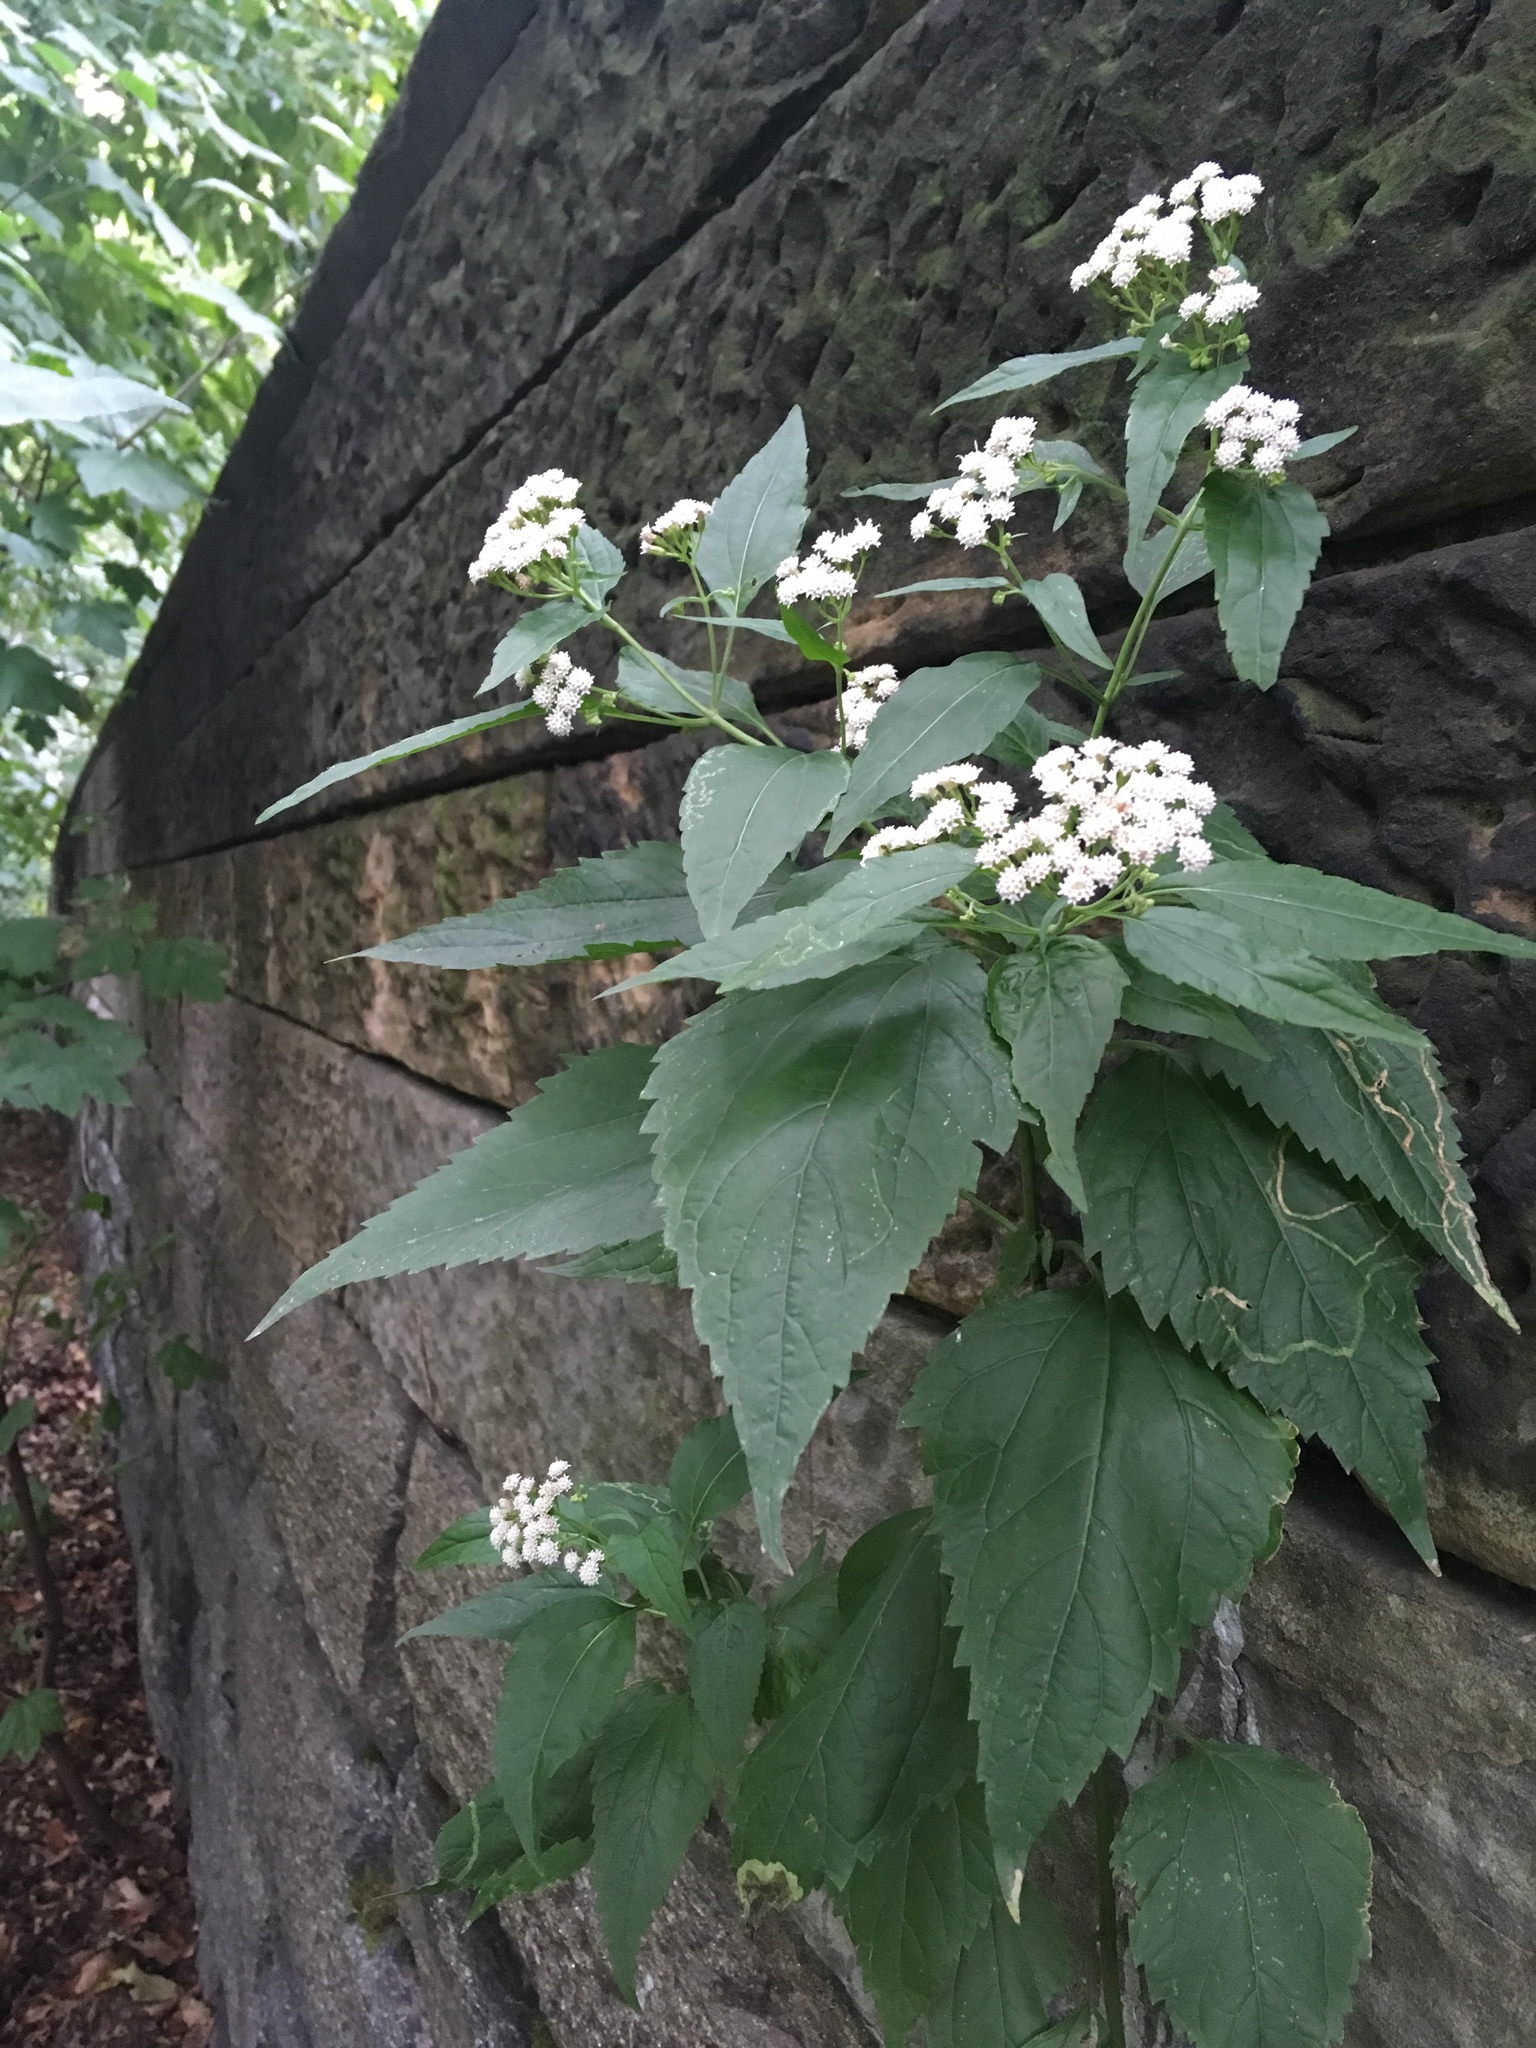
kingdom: Plantae
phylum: Tracheophyta
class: Magnoliopsida
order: Asterales
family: Asteraceae
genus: Ageratina
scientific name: Ageratina altissima
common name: White snakeroot
